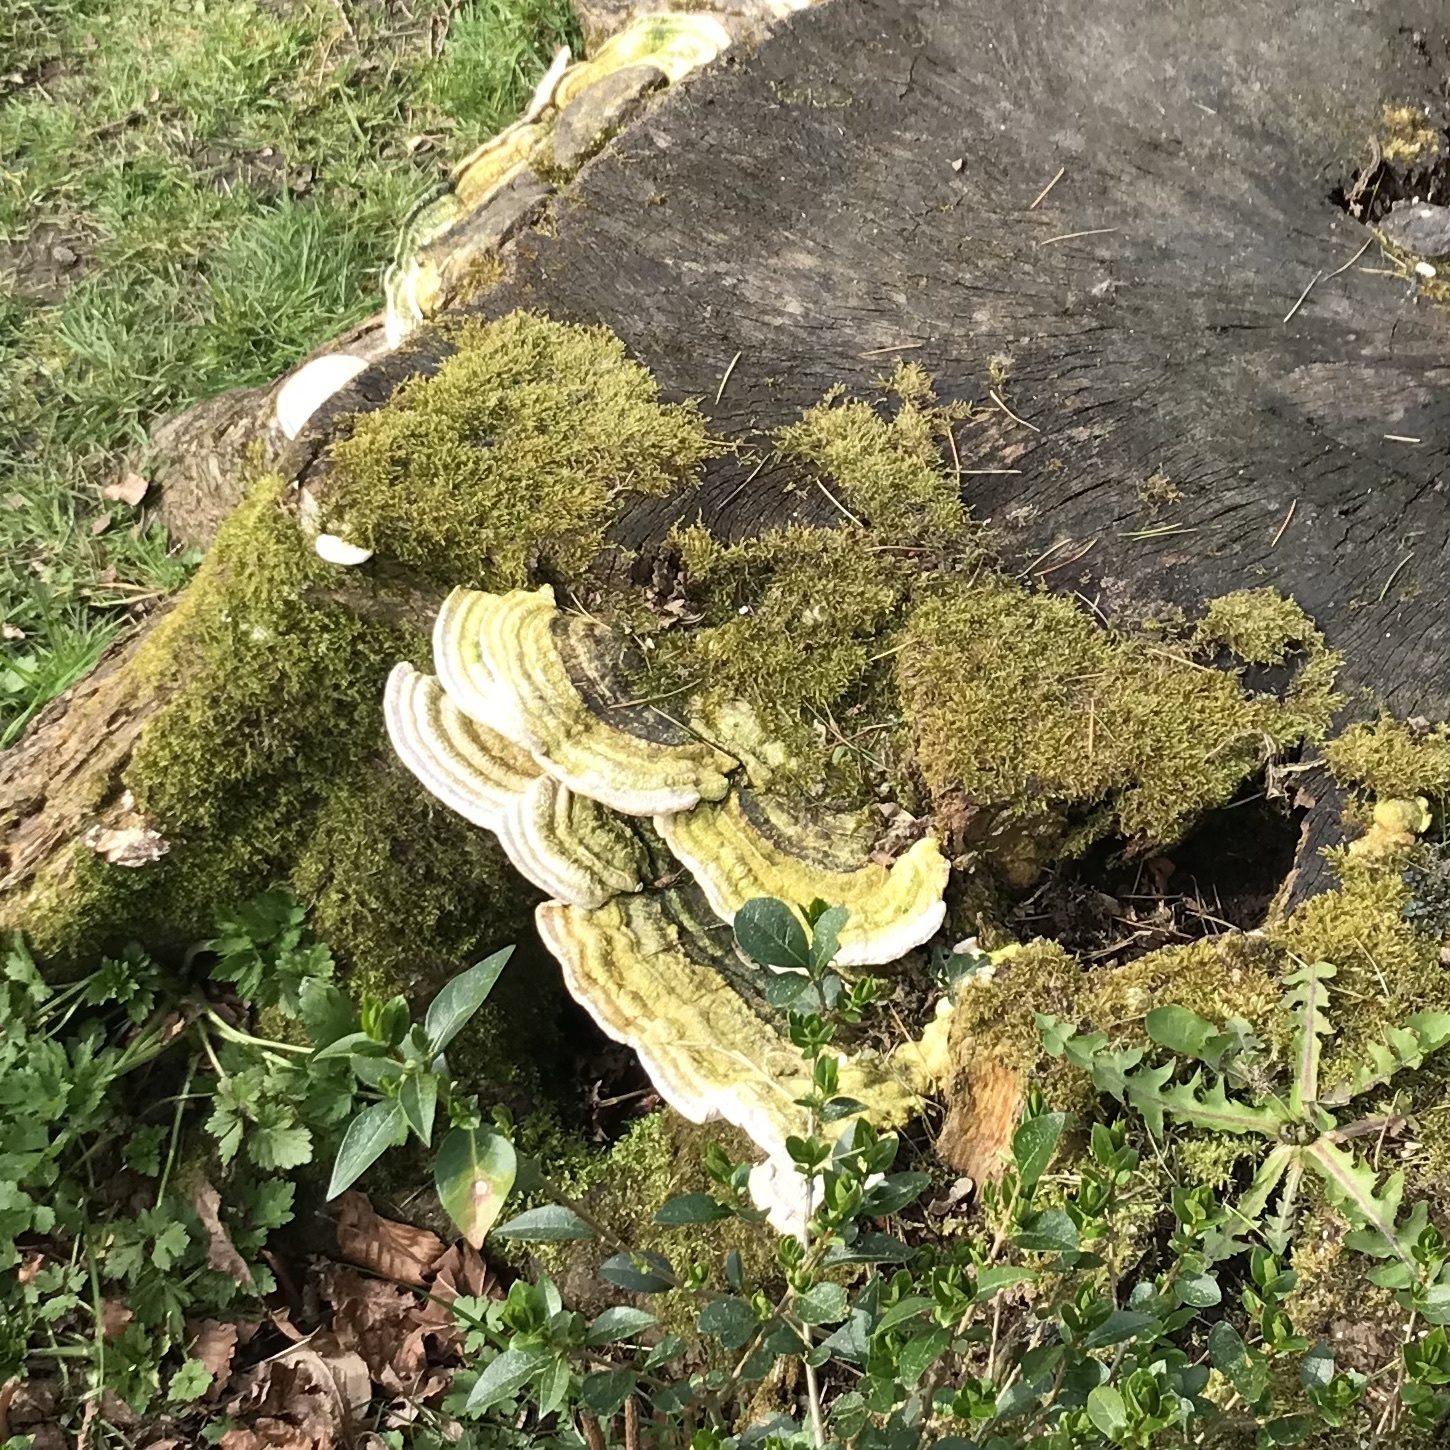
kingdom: Fungi
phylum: Basidiomycota
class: Agaricomycetes
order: Polyporales
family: Polyporaceae
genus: Trametes
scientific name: Trametes gibbosa
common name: Lumpy bracket
